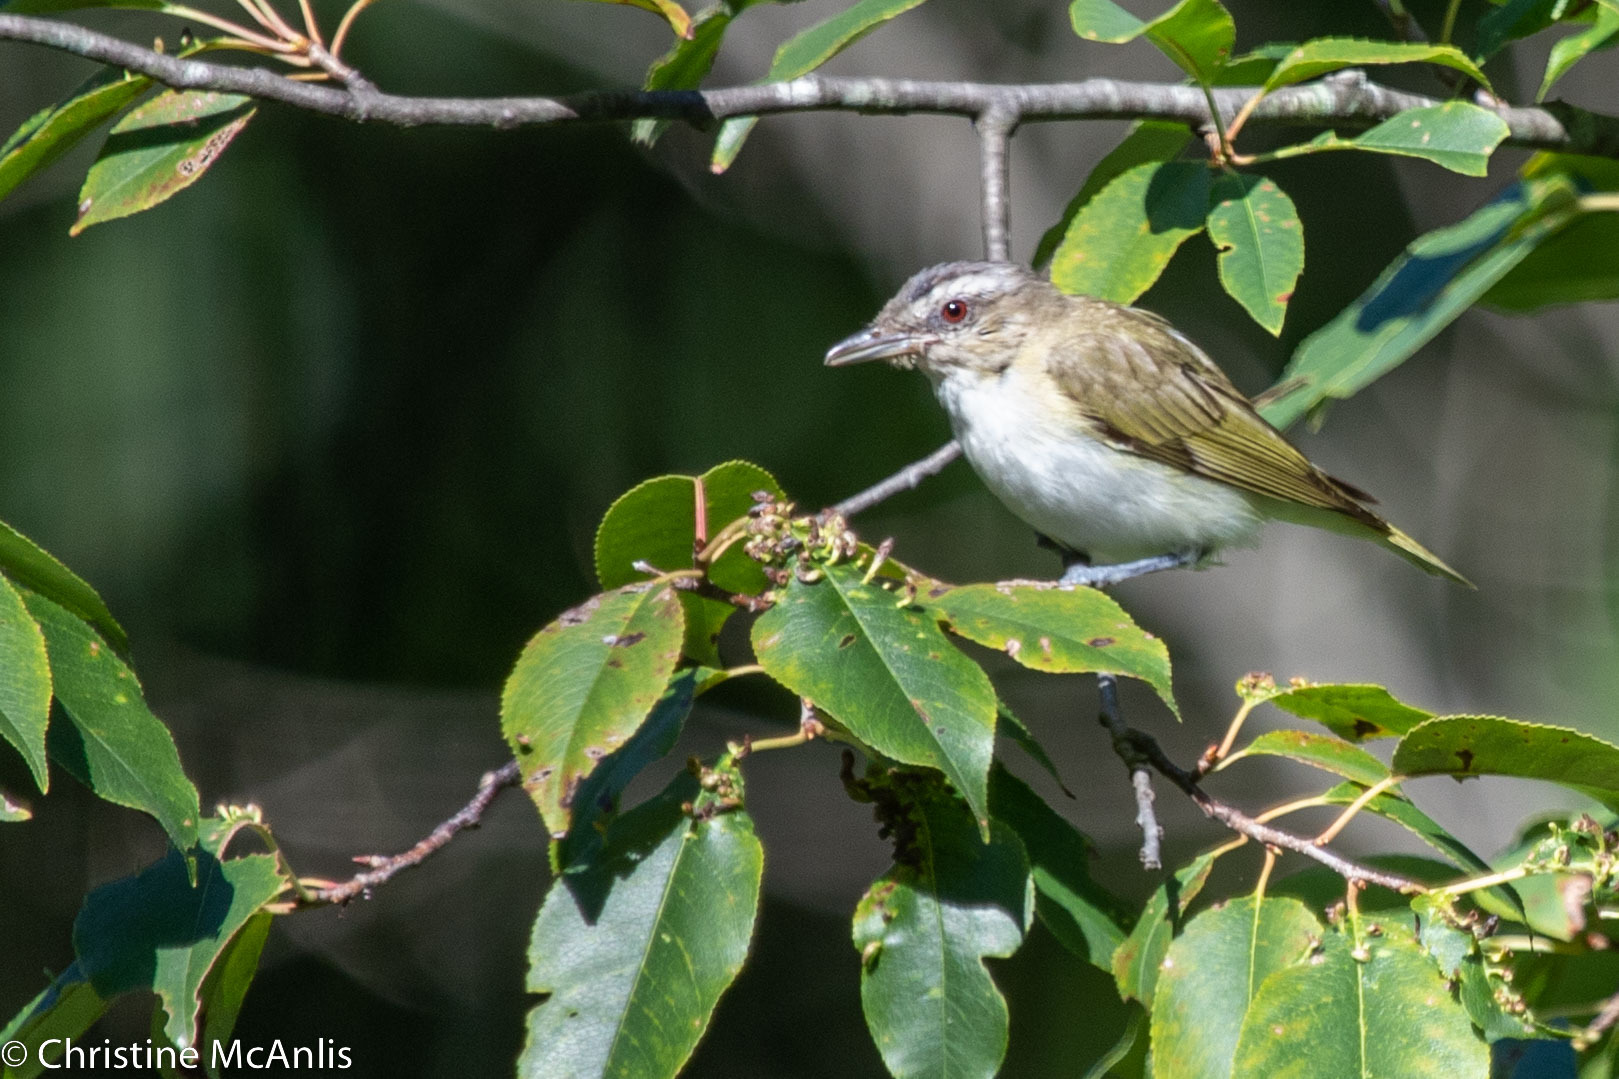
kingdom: Animalia
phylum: Chordata
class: Aves
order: Passeriformes
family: Vireonidae
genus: Vireo
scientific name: Vireo olivaceus
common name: Red-eyed vireo
